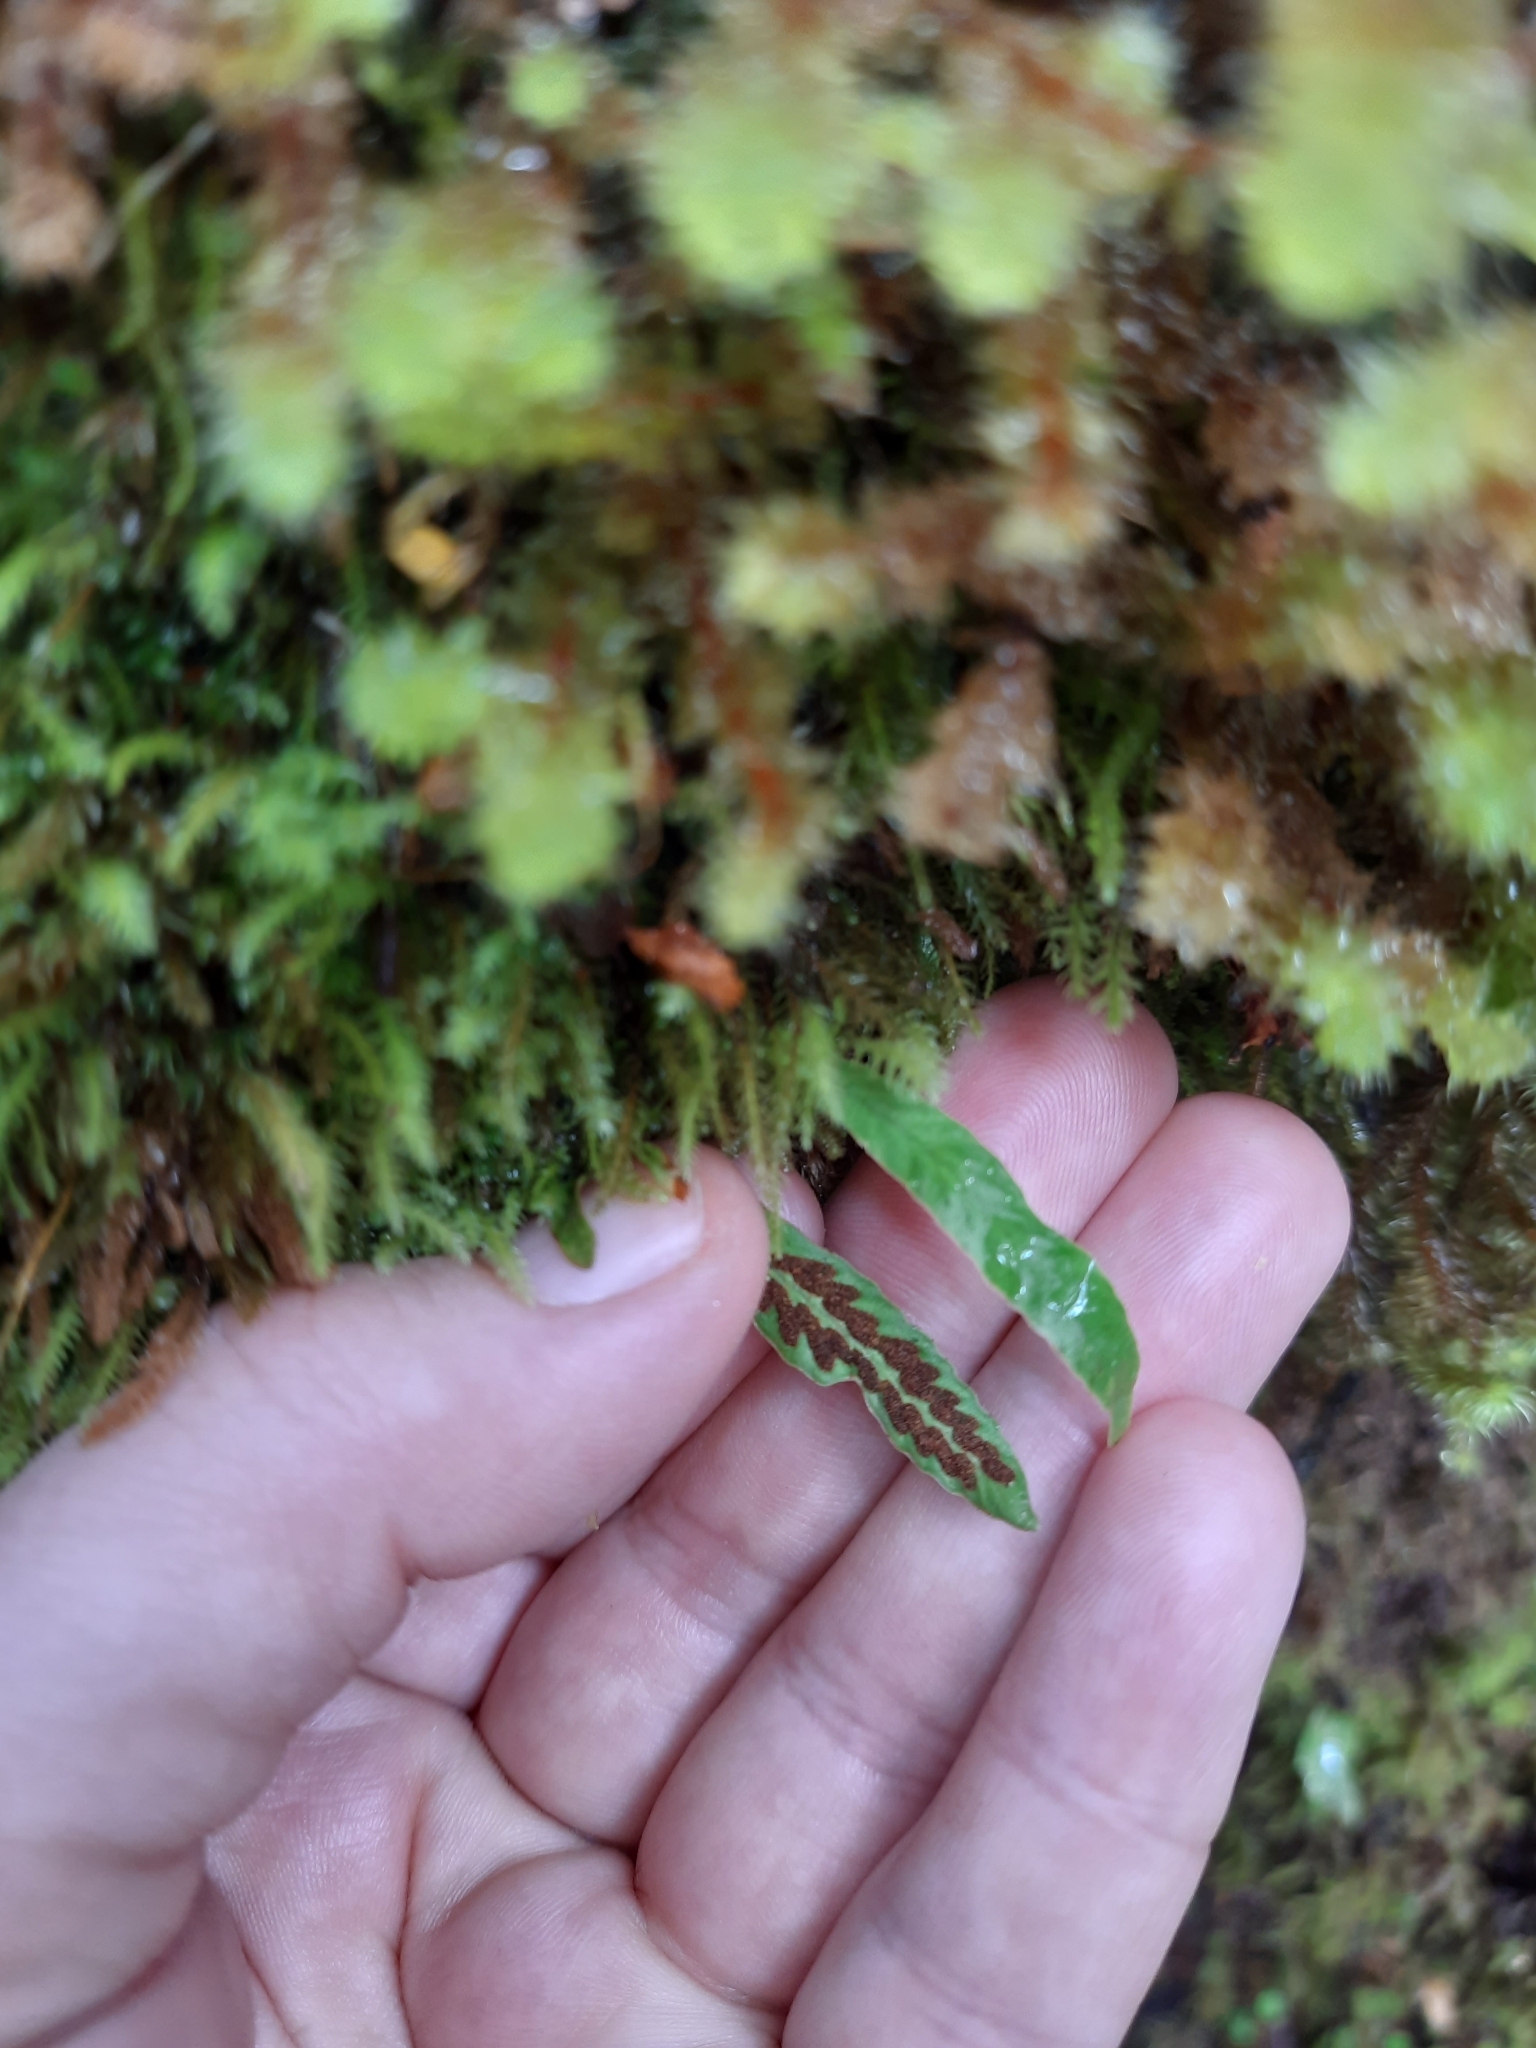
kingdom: Plantae
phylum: Tracheophyta
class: Polypodiopsida
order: Polypodiales
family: Polypodiaceae
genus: Notogrammitis
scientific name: Notogrammitis billardierei
